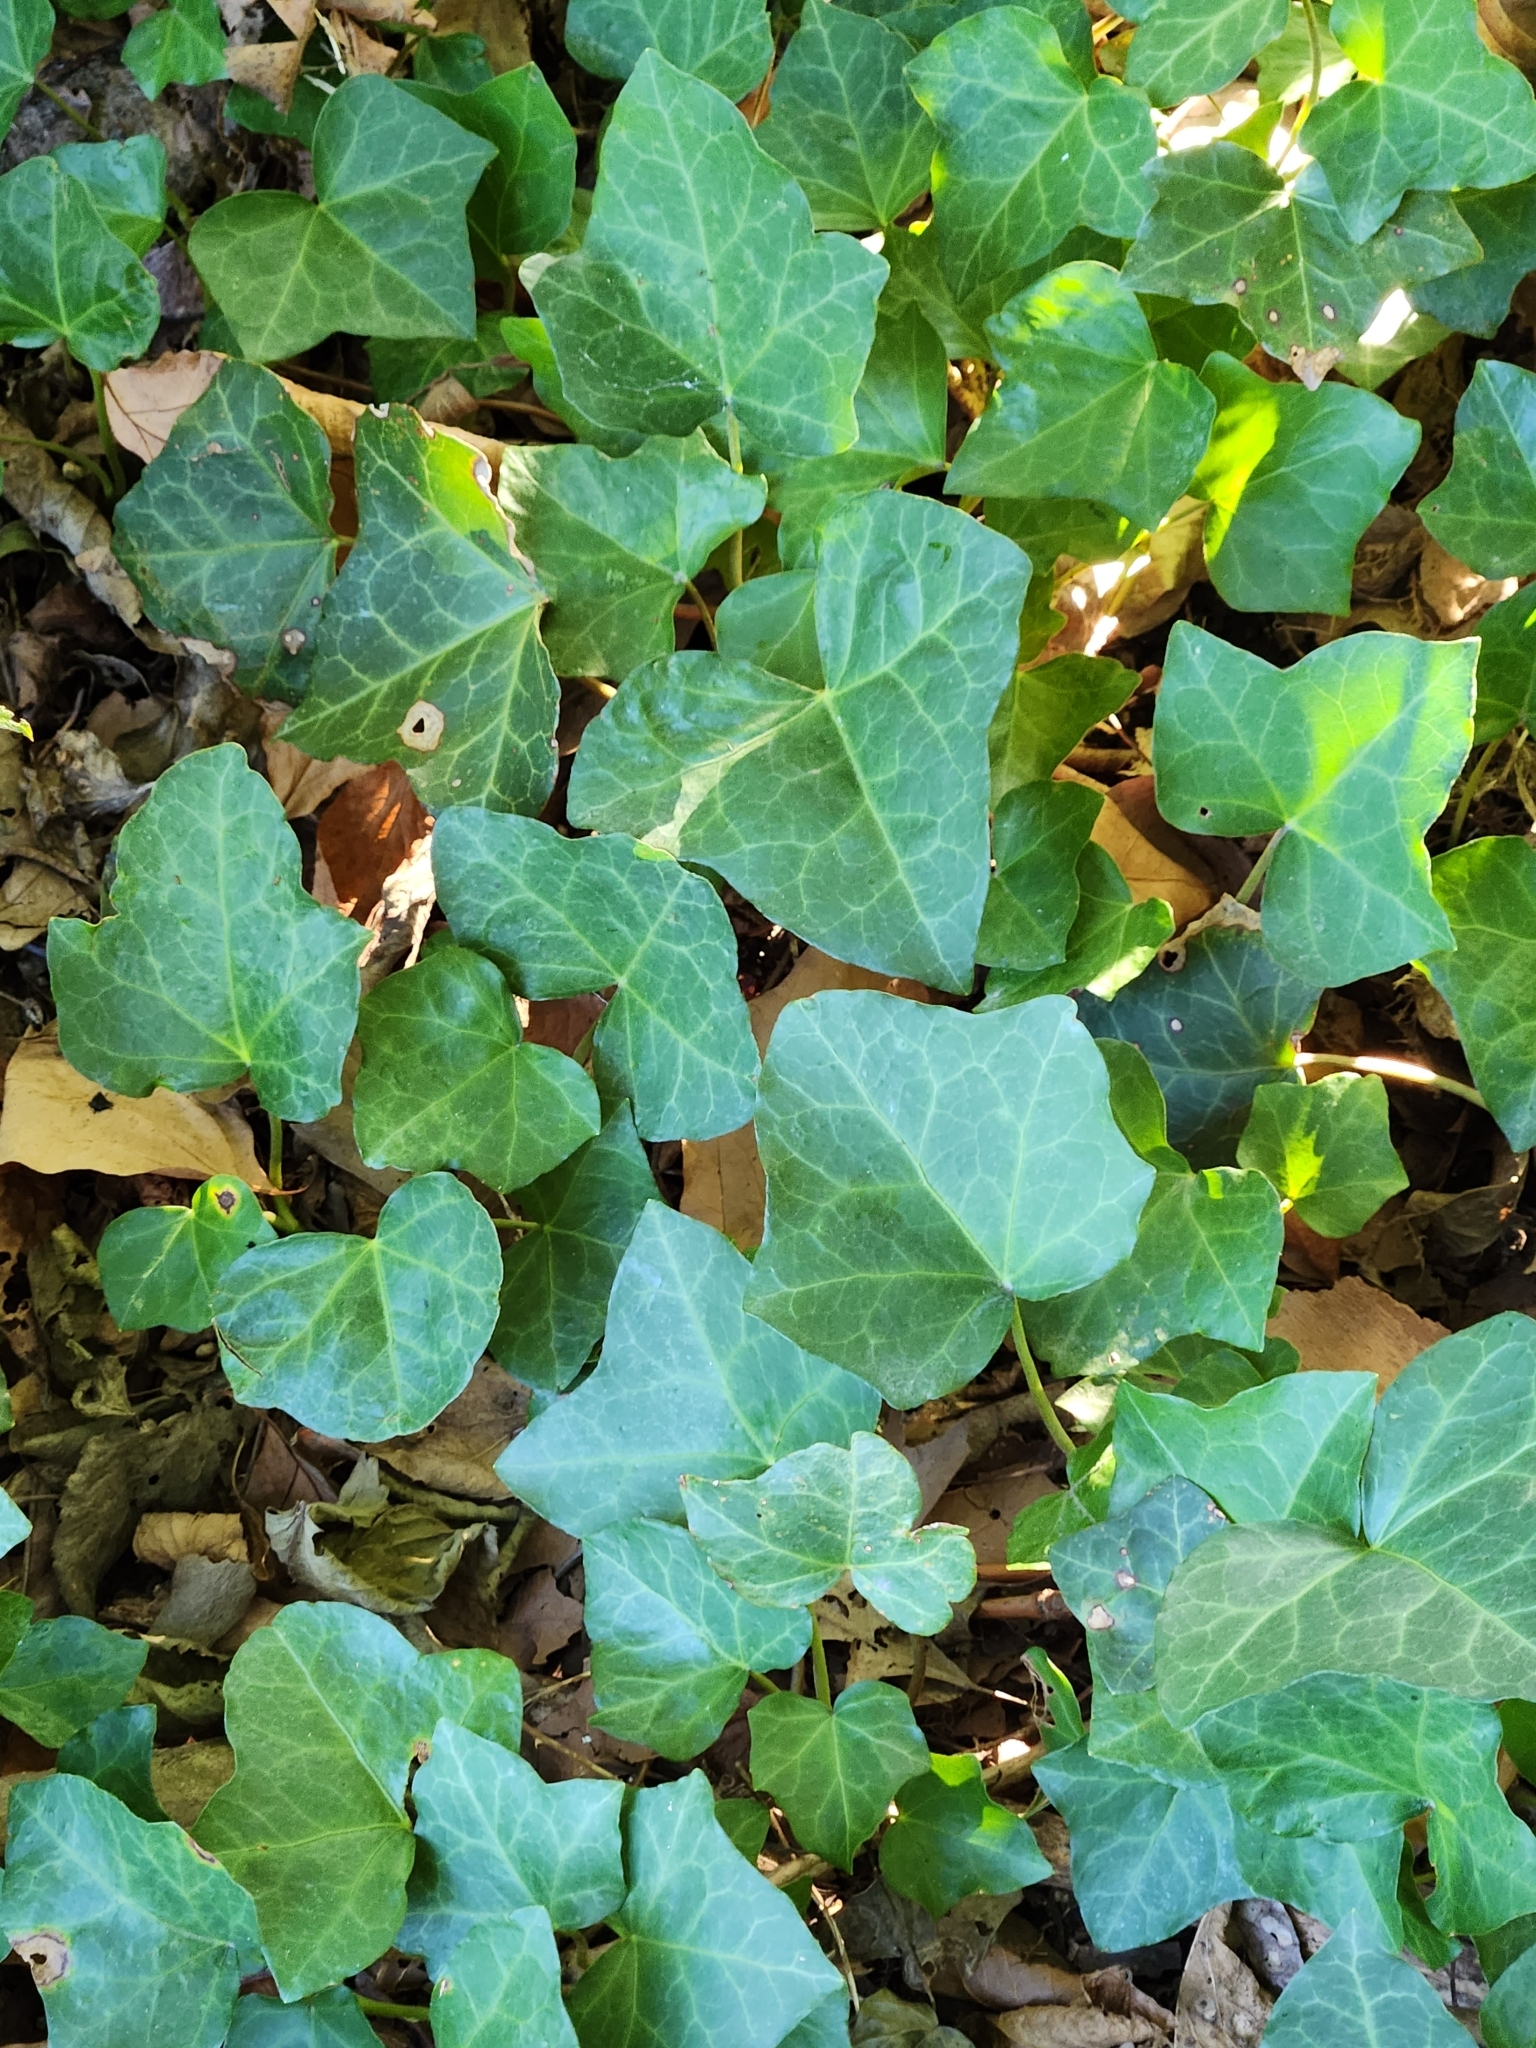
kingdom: Plantae
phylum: Tracheophyta
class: Magnoliopsida
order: Apiales
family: Araliaceae
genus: Hedera
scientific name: Hedera helix
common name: Ivy
